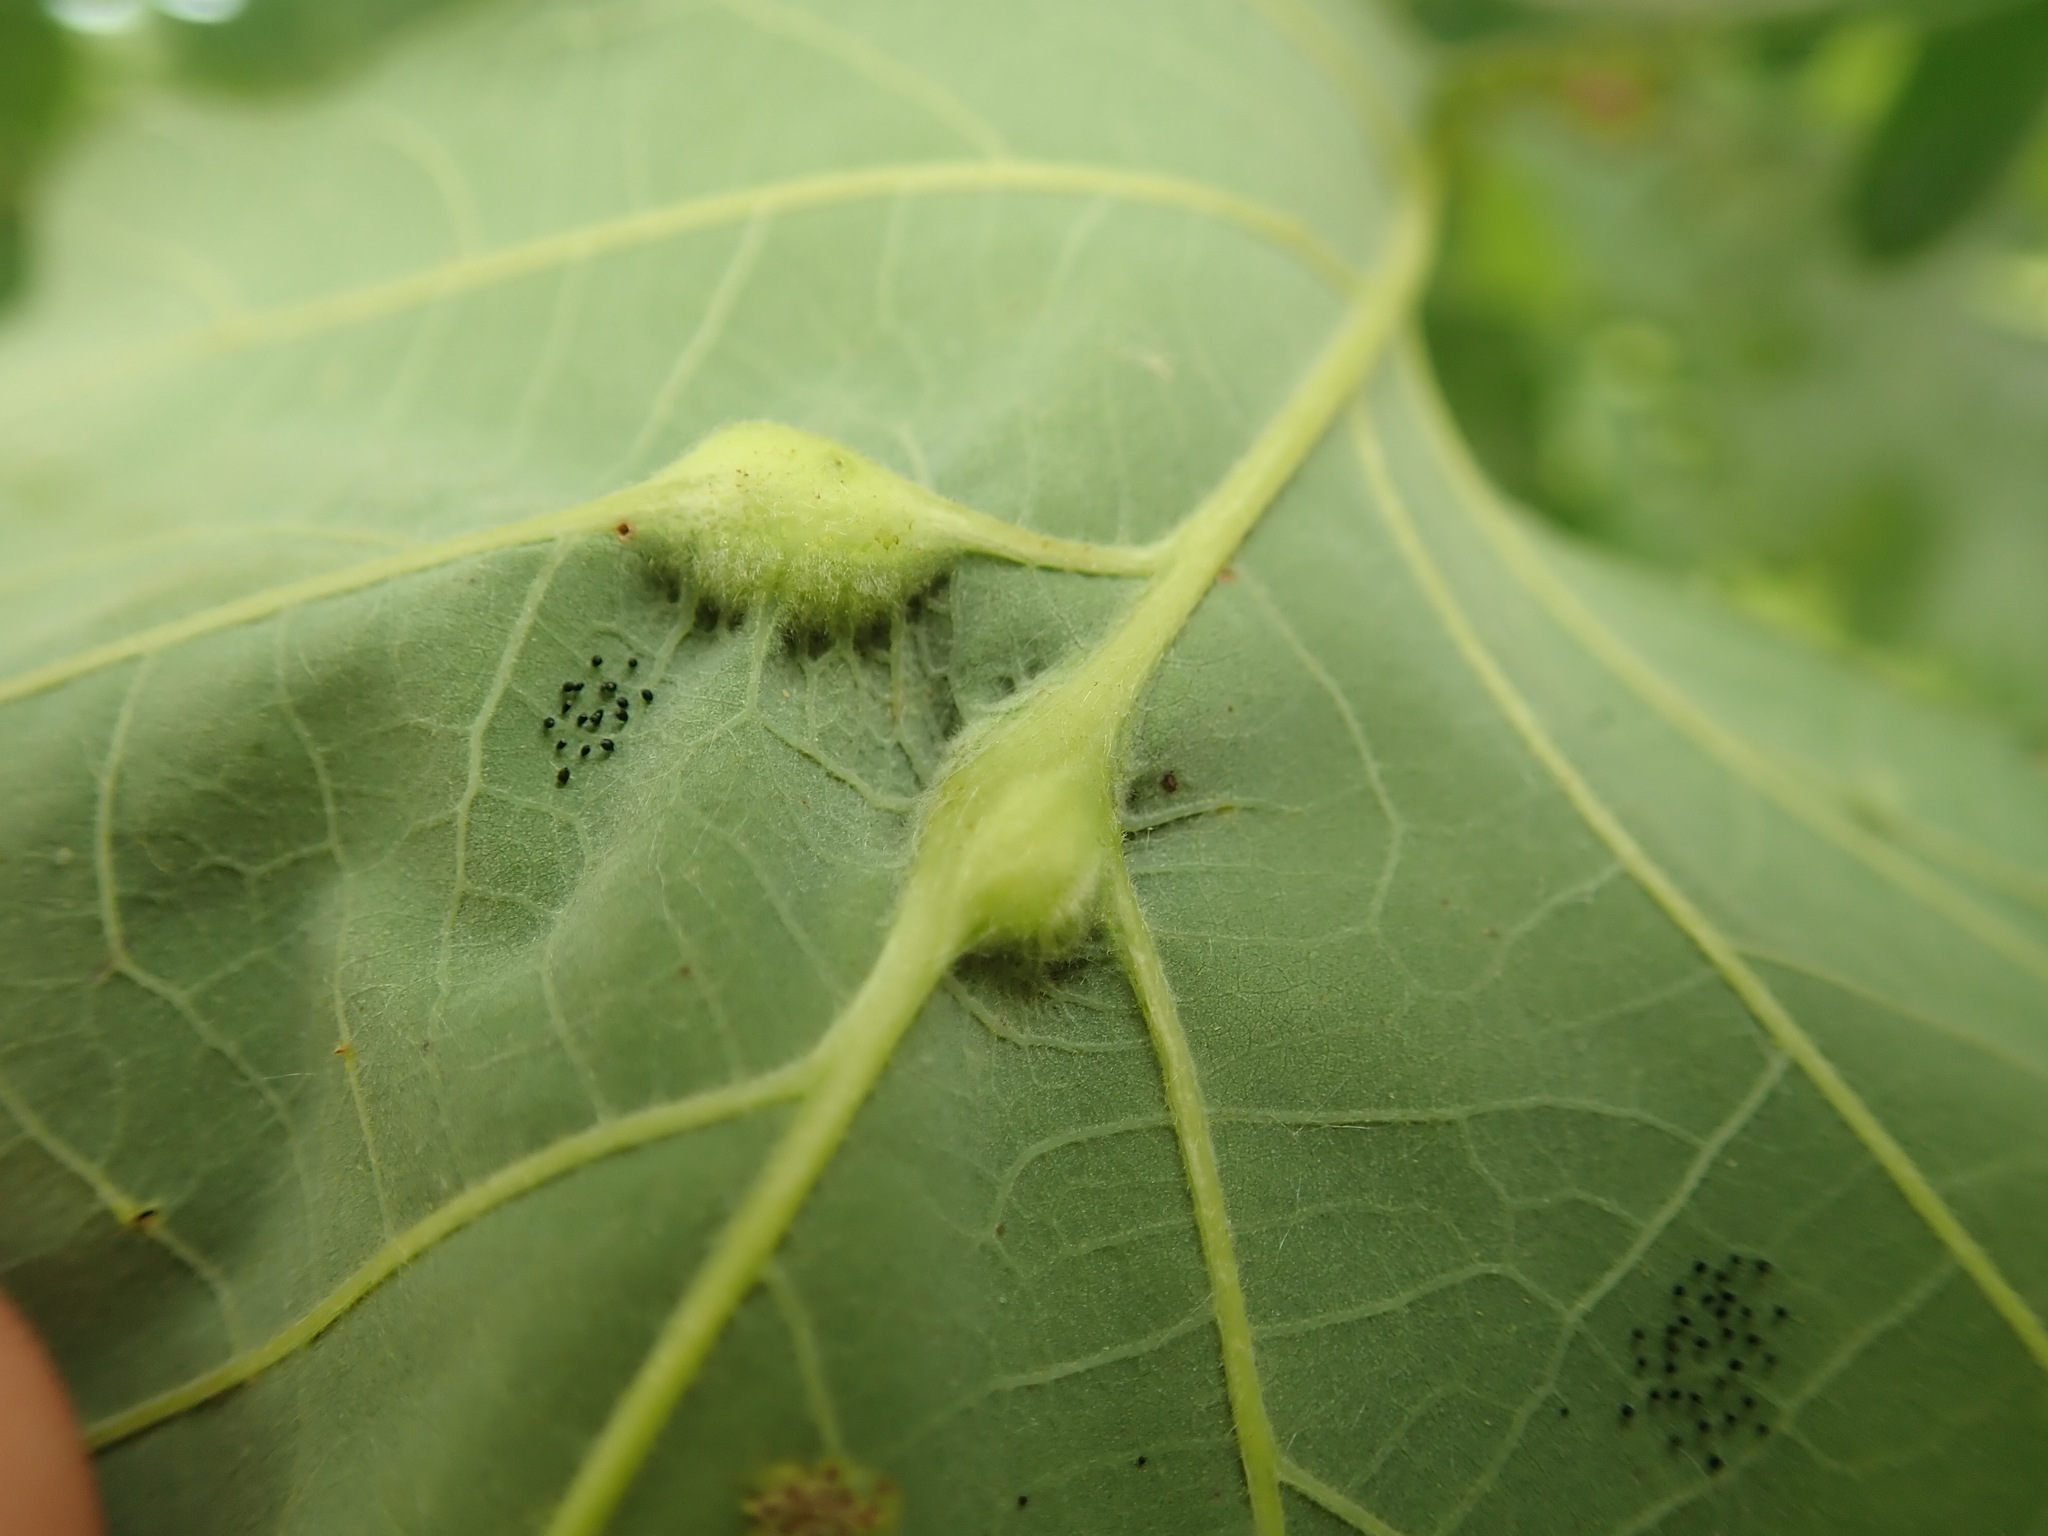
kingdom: Animalia
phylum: Arthropoda
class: Insecta
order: Hymenoptera
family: Cynipidae
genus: Bassettia
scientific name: Bassettia flavipes
